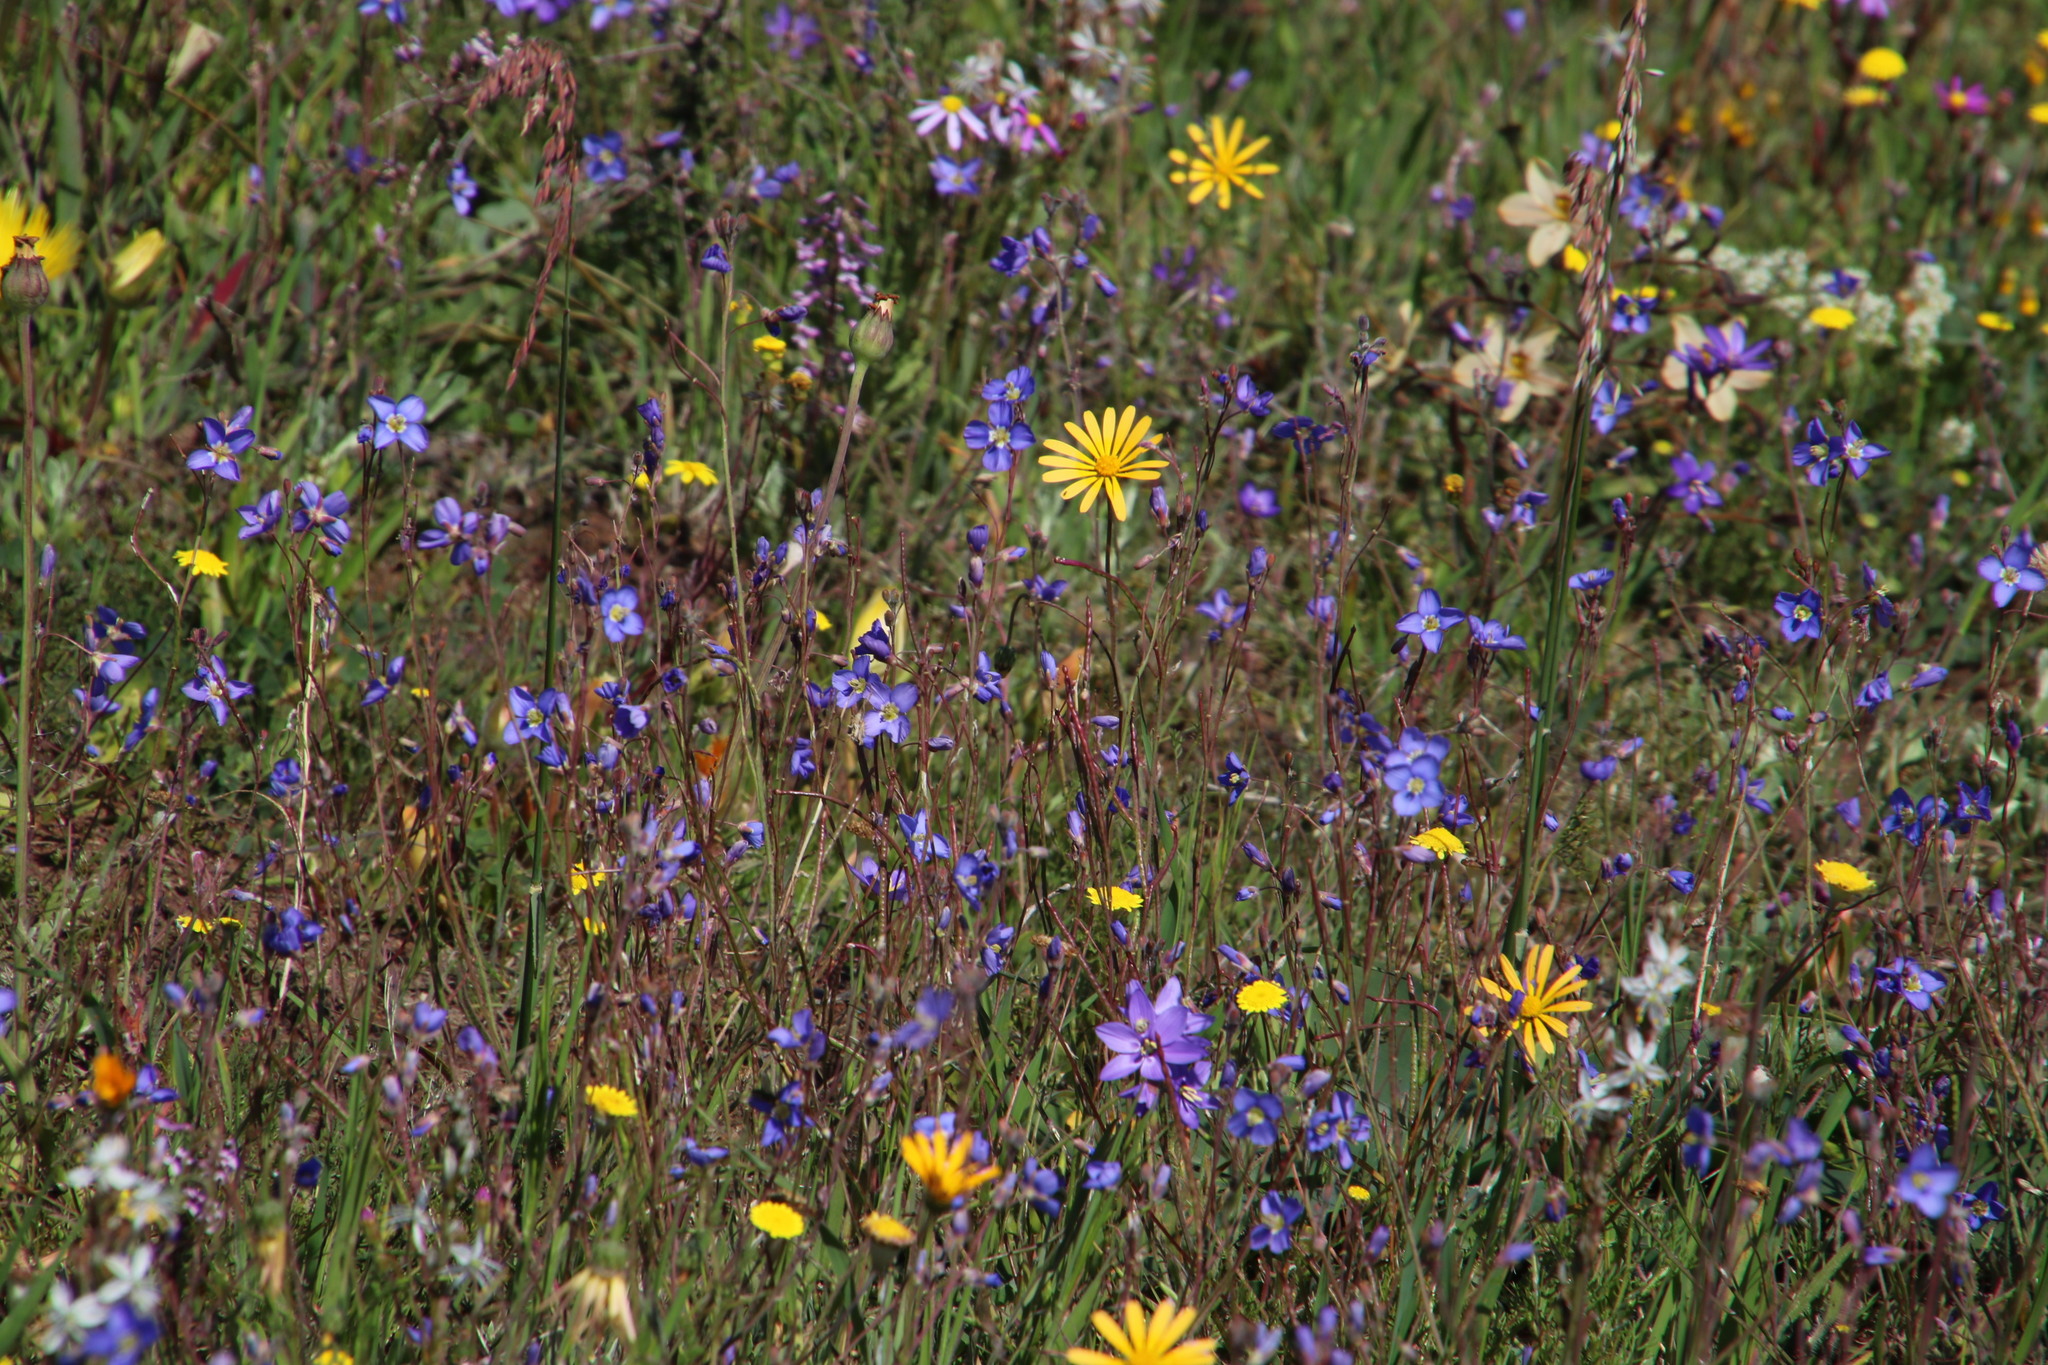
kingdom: Plantae
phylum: Tracheophyta
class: Magnoliopsida
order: Brassicales
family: Brassicaceae
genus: Heliophila
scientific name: Heliophila africana
